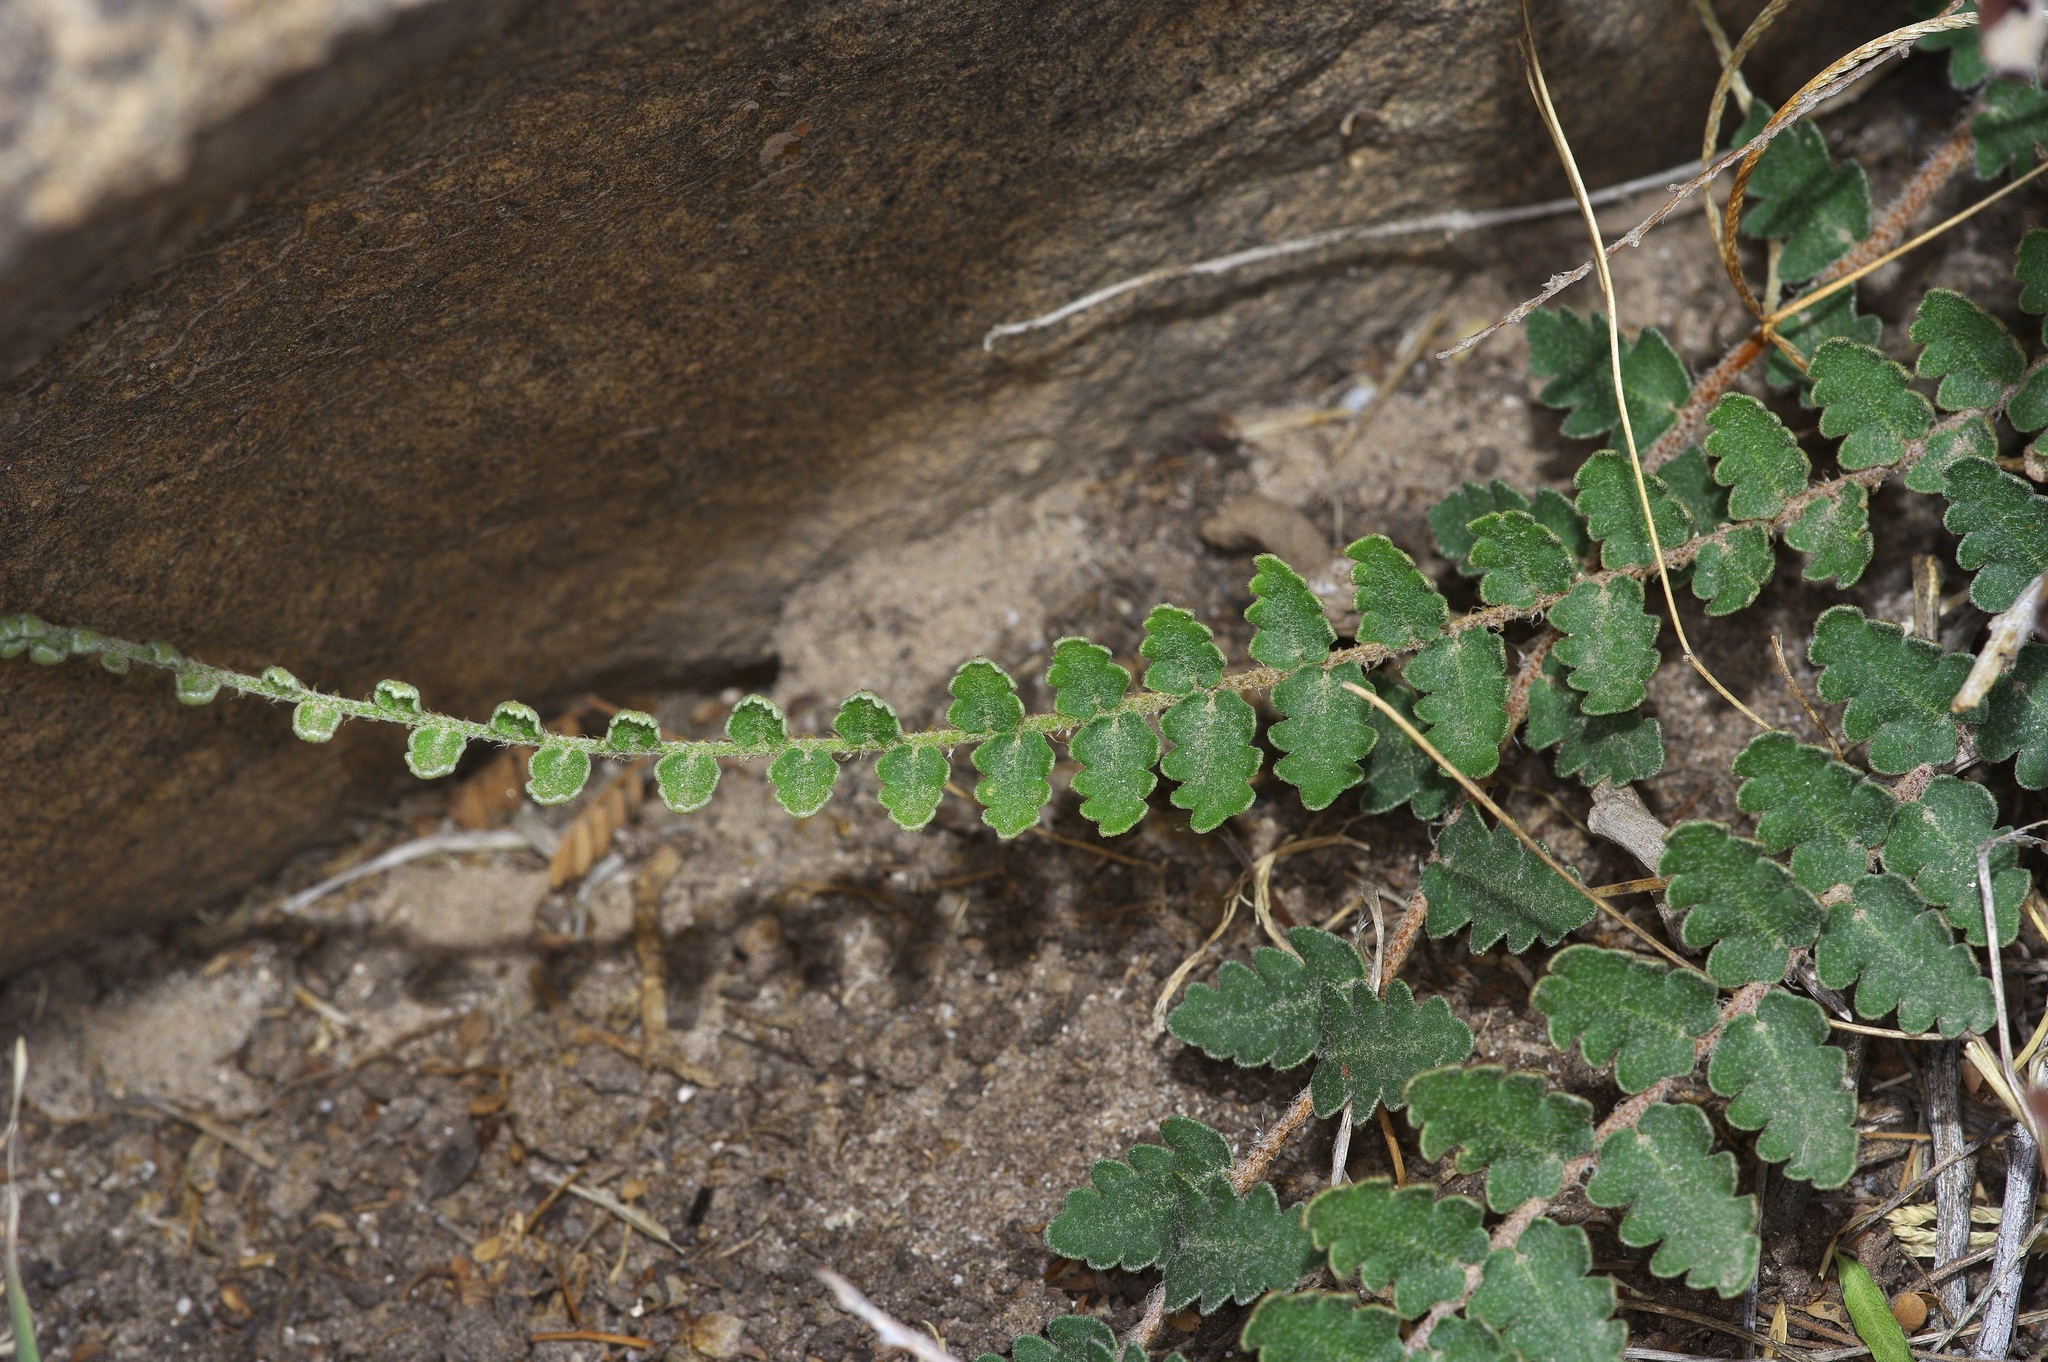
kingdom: Plantae
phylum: Tracheophyta
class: Polypodiopsida
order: Polypodiales
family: Pteridaceae
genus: Astrolepis
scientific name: Astrolepis sinuata
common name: Wavy scaly cloakfern
